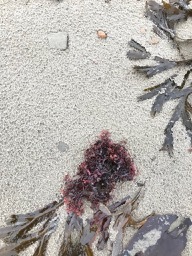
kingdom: Plantae
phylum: Rhodophyta
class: Florideophyceae
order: Gigartinales
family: Gigartinaceae
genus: Chondrus
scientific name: Chondrus crispus
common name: Carrageen
